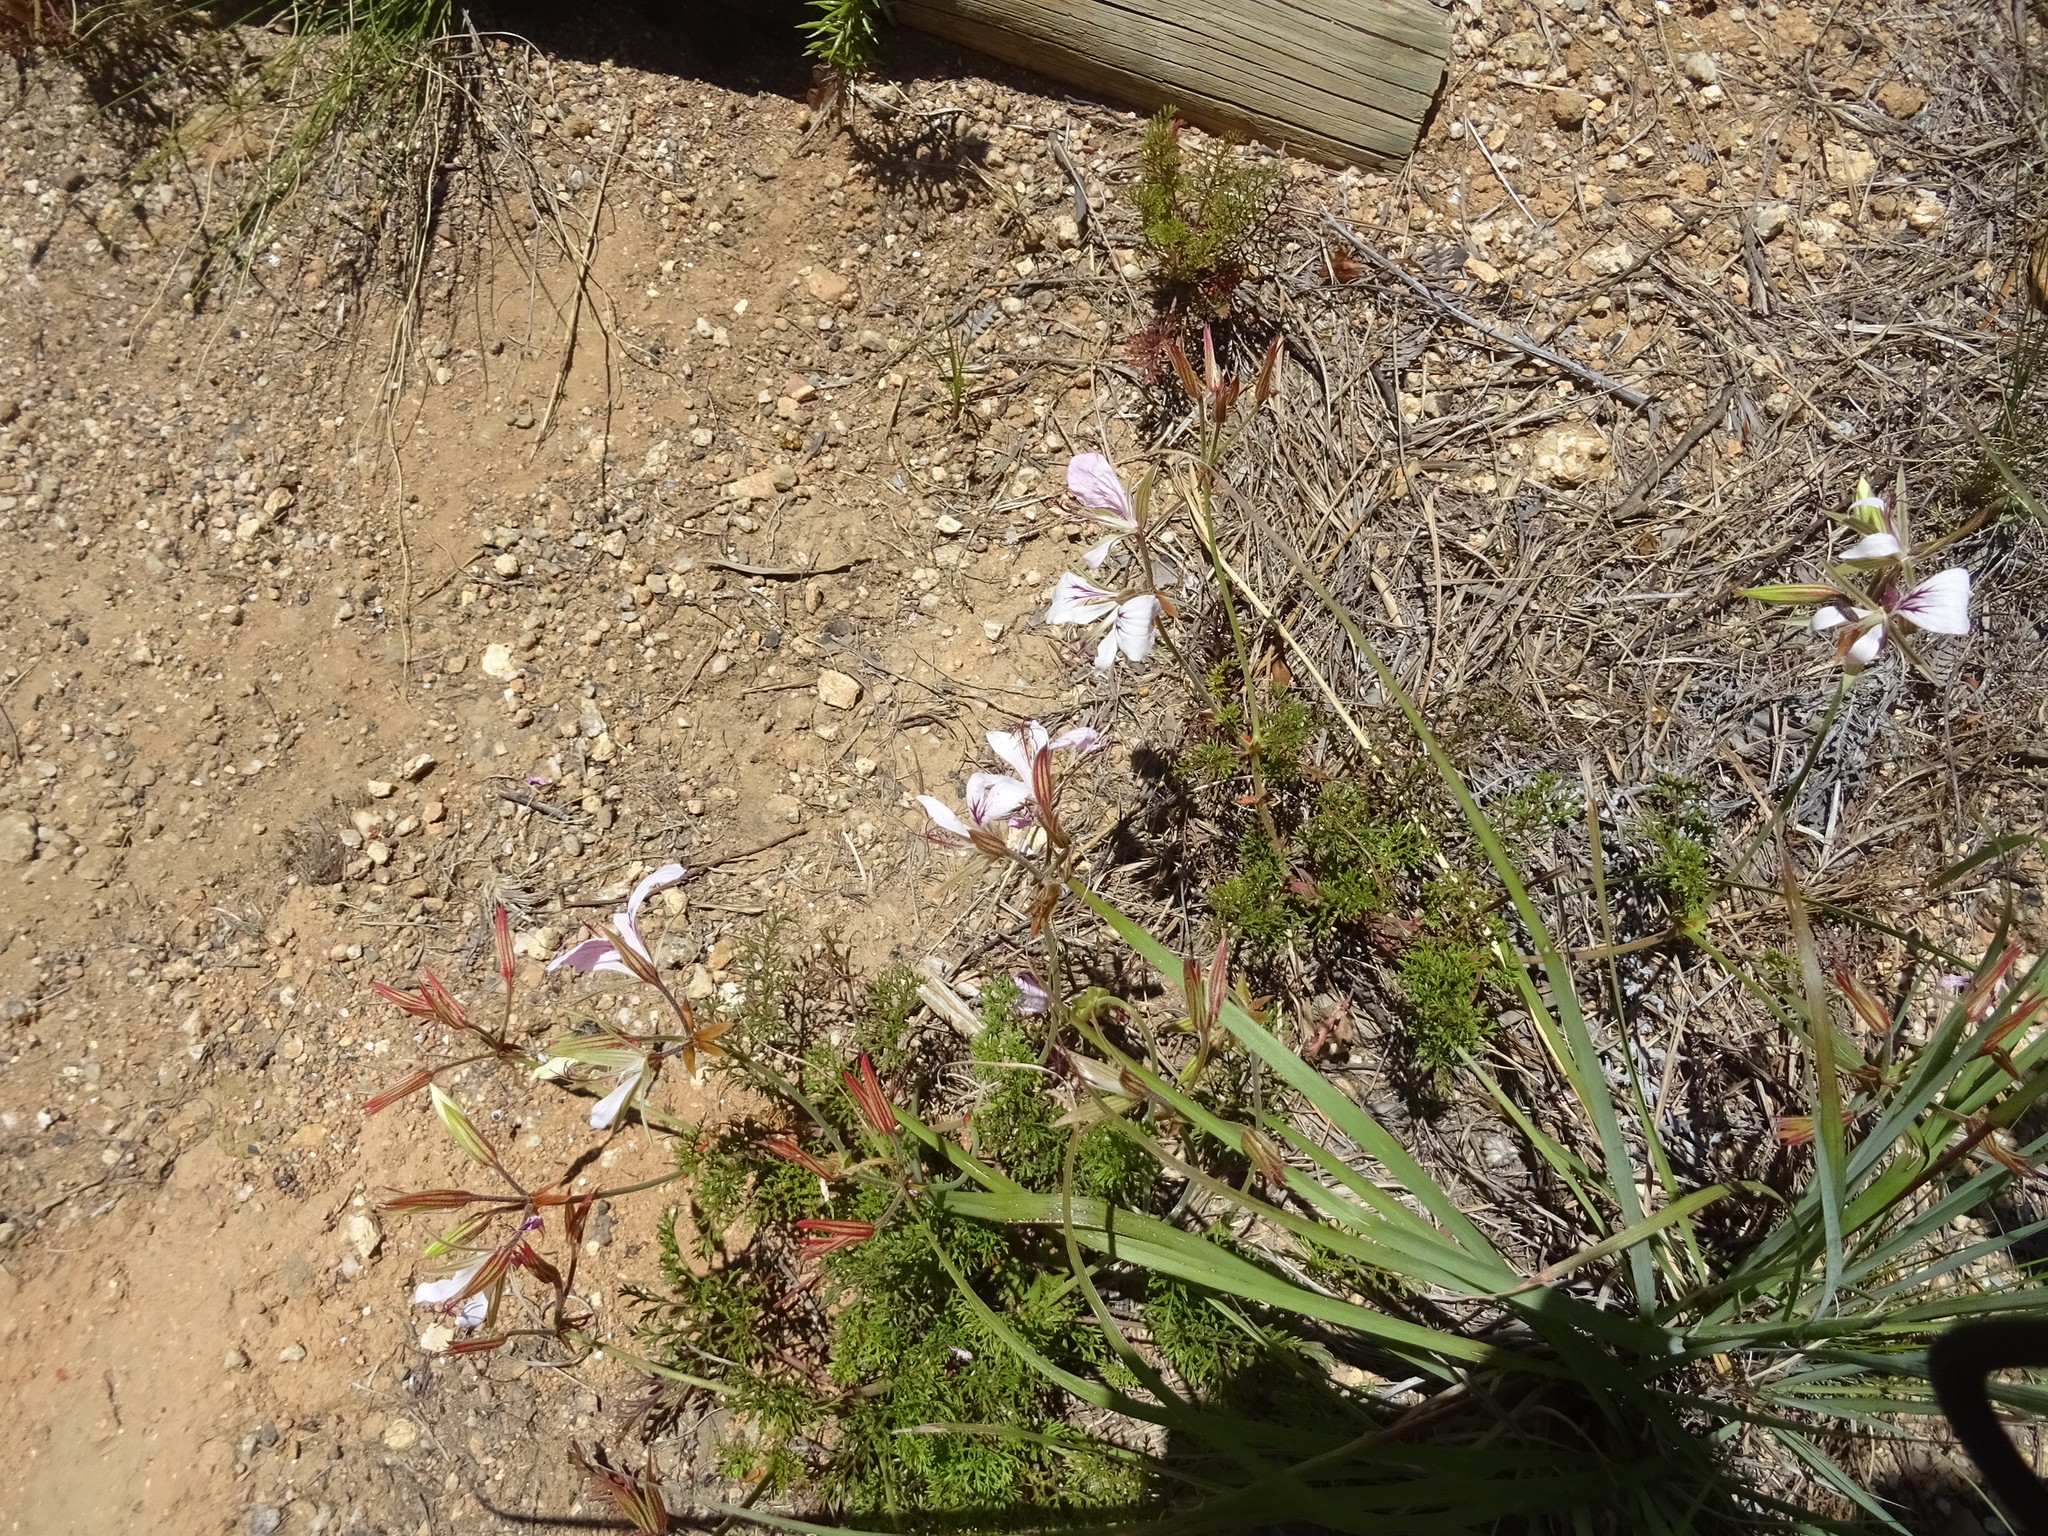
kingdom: Plantae
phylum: Tracheophyta
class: Magnoliopsida
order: Geraniales
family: Geraniaceae
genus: Pelargonium
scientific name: Pelargonium myrrhifolium
